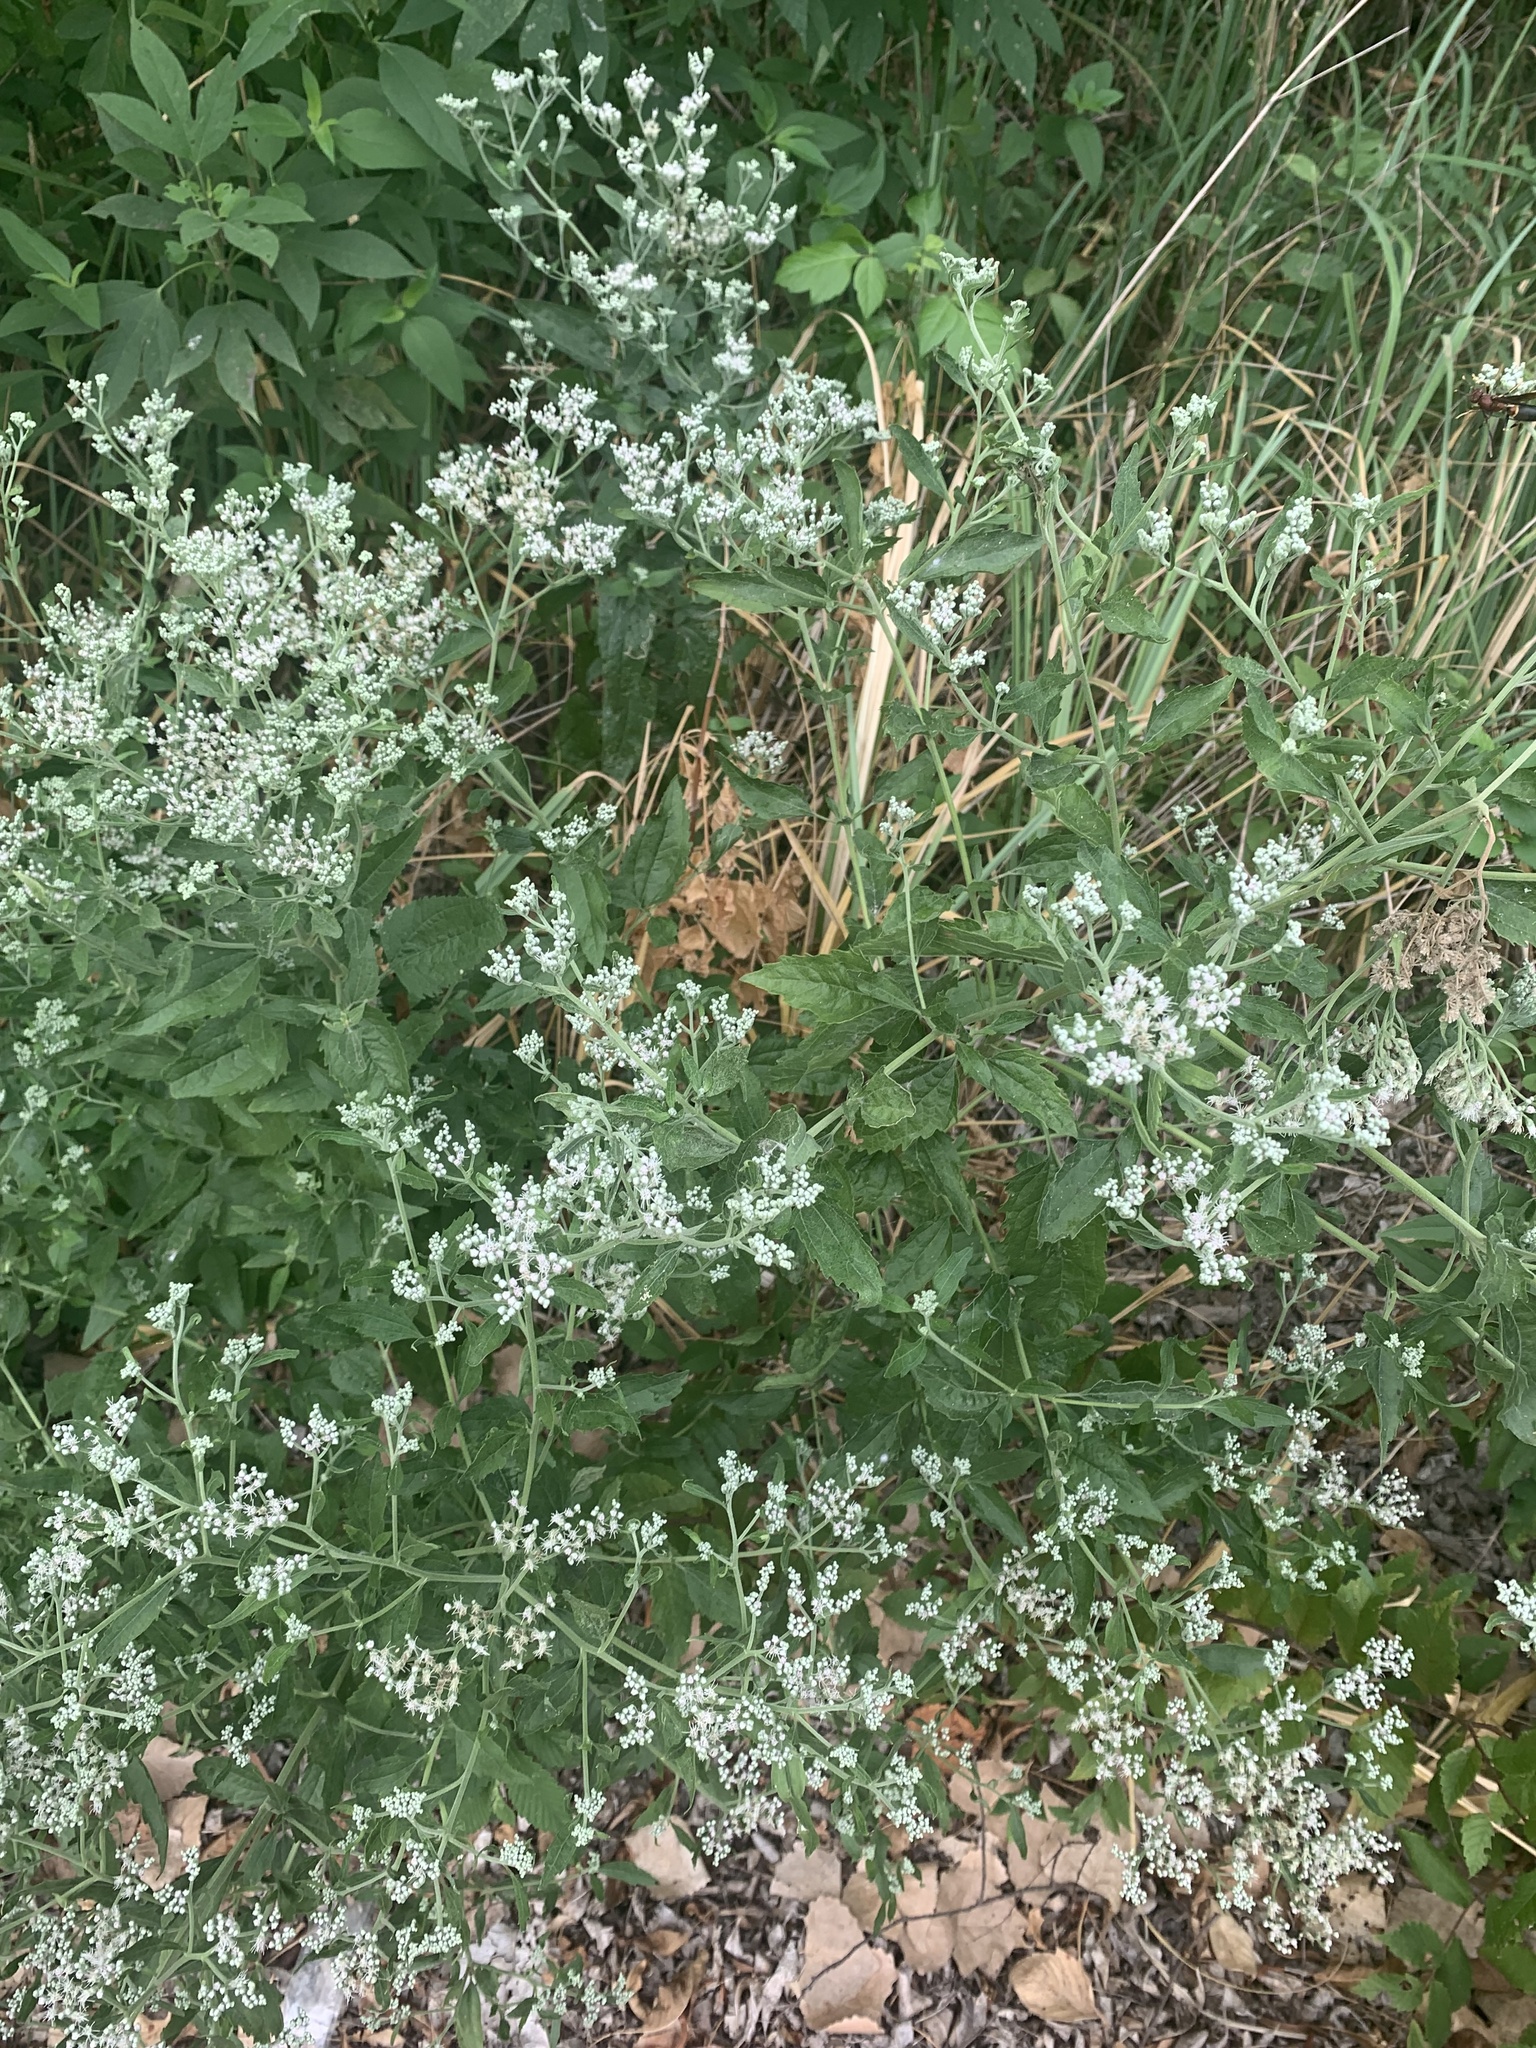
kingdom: Plantae
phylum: Tracheophyta
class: Magnoliopsida
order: Asterales
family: Asteraceae
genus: Eupatorium
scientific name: Eupatorium serotinum
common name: Late boneset
